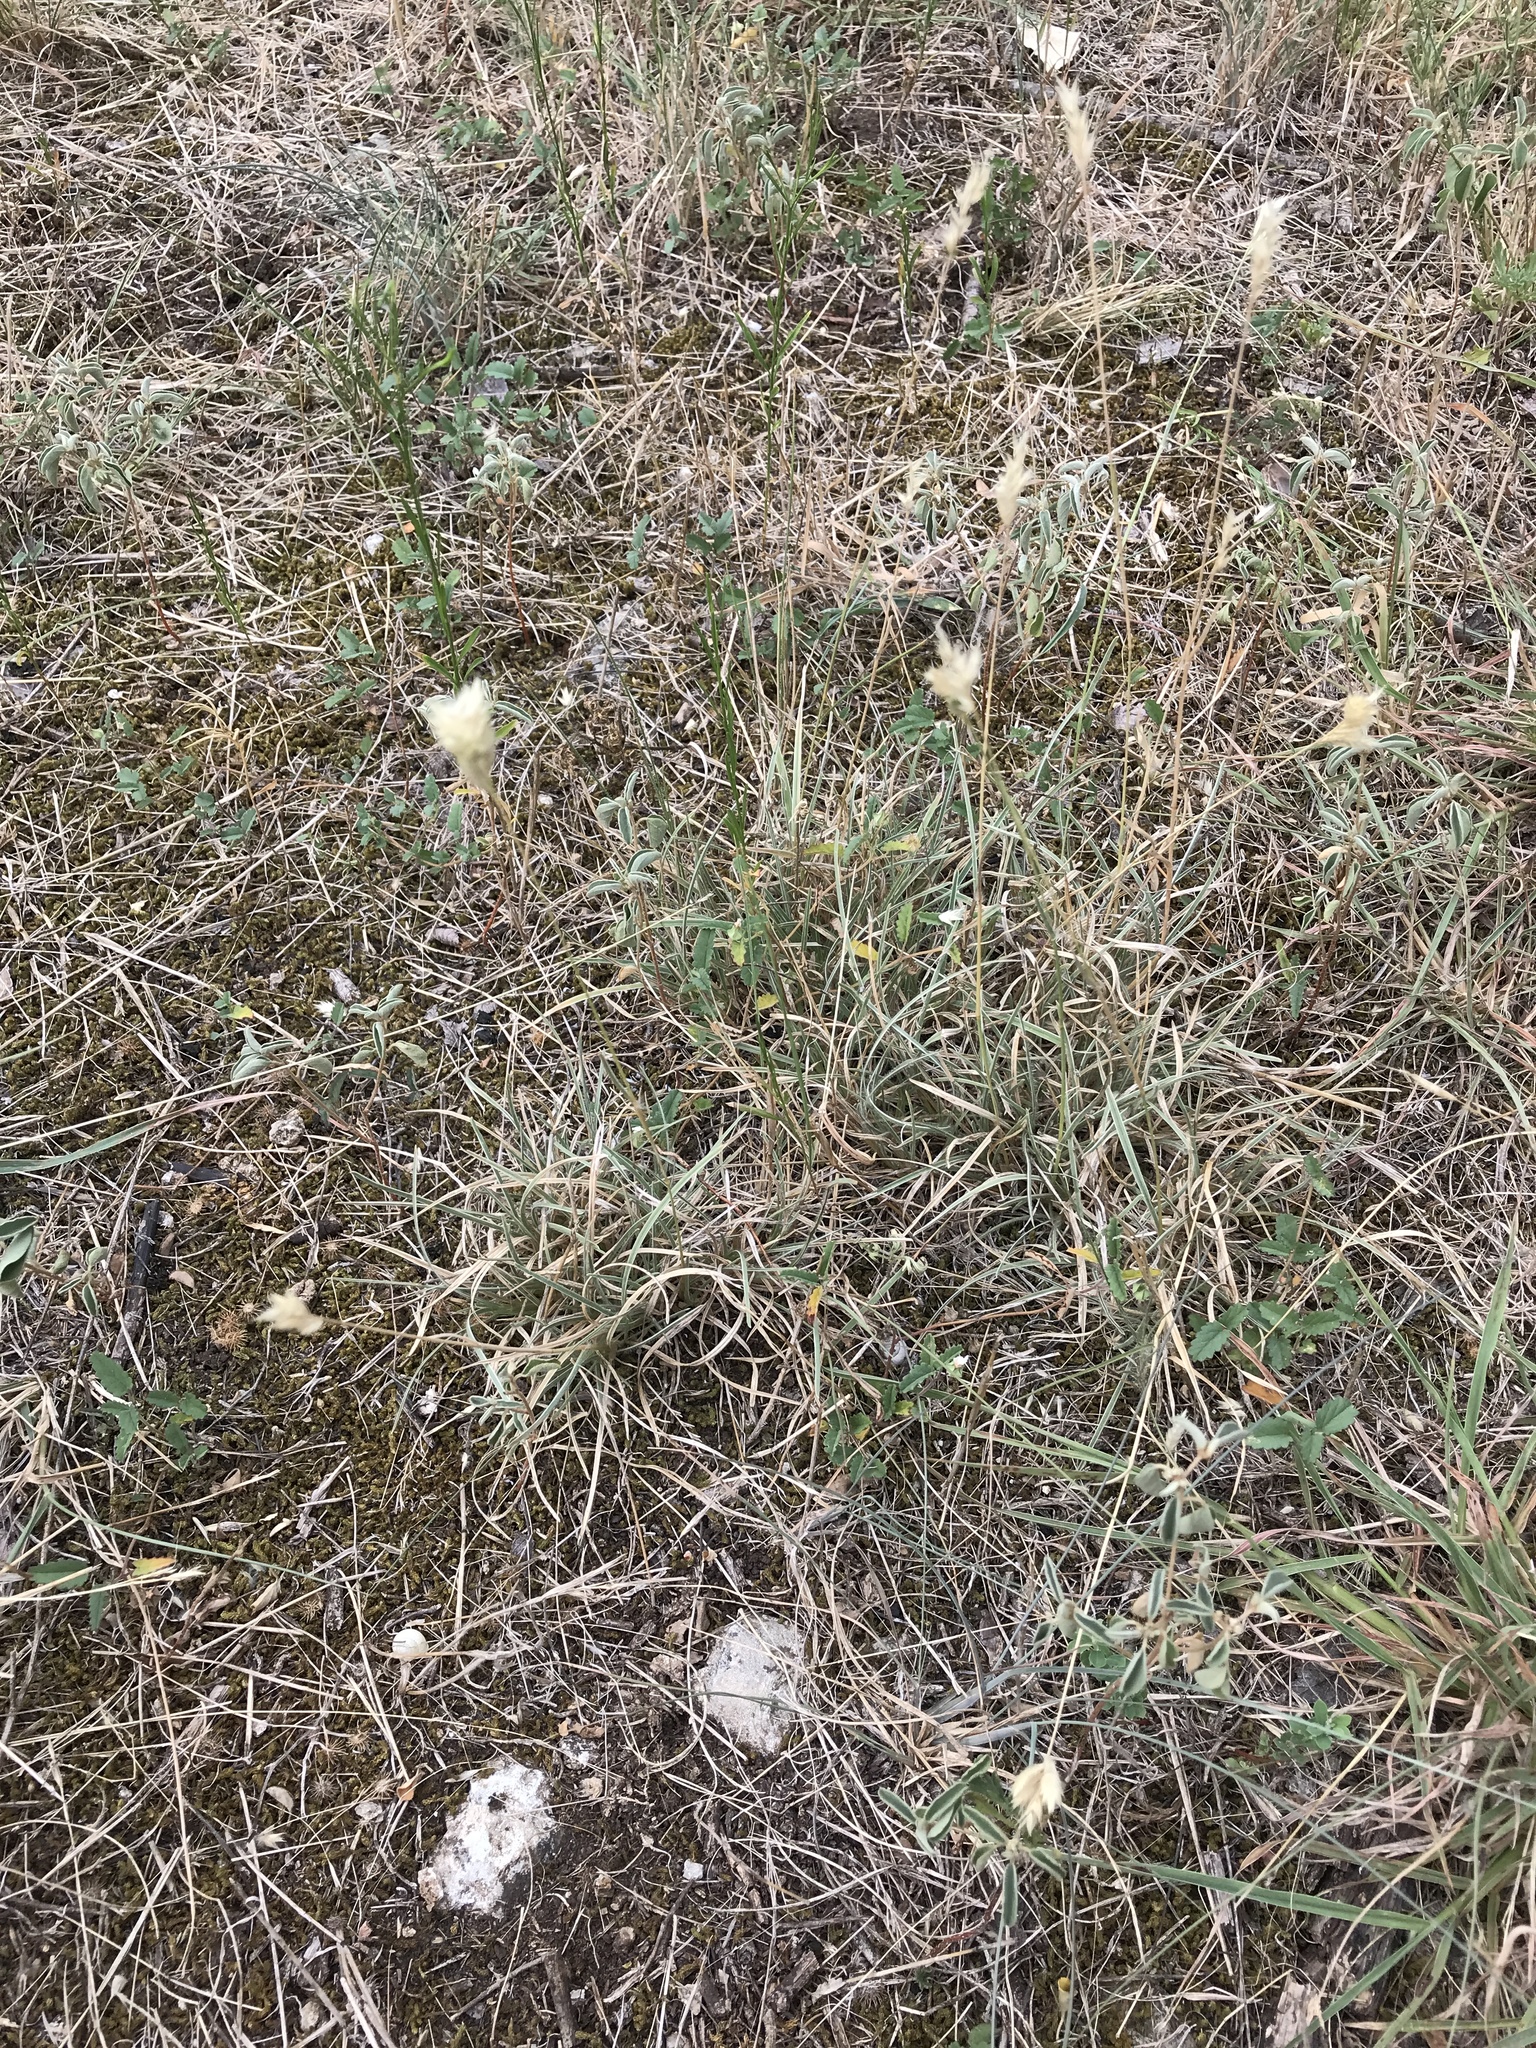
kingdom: Plantae
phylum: Tracheophyta
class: Liliopsida
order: Poales
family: Poaceae
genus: Erioneuron
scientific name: Erioneuron pilosum
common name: Hairy woolly grass
